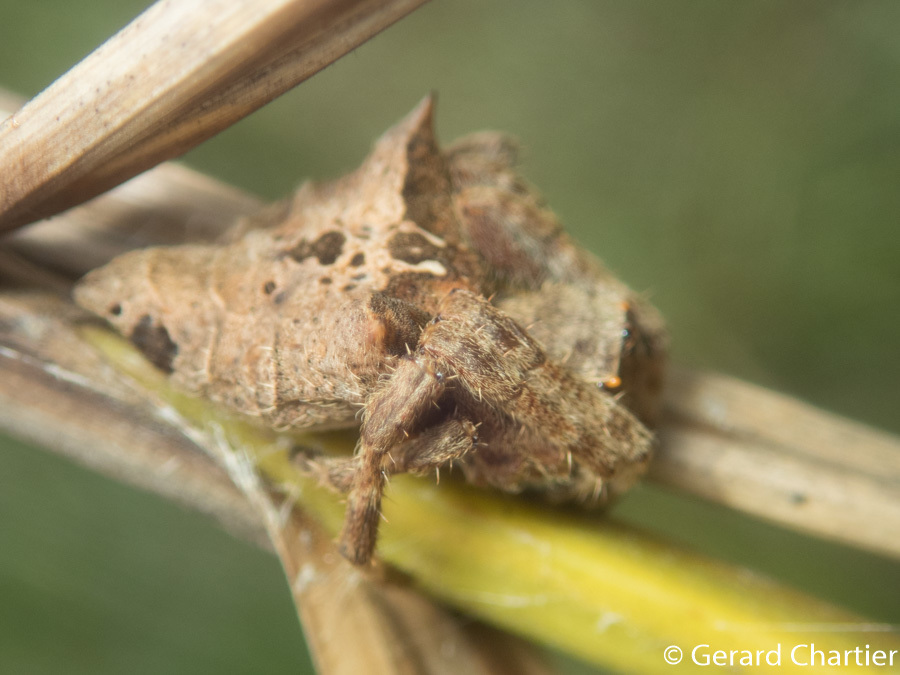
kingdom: Animalia
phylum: Arthropoda
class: Arachnida
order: Araneae
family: Araneidae
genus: Parawixia
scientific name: Parawixia dehaani
